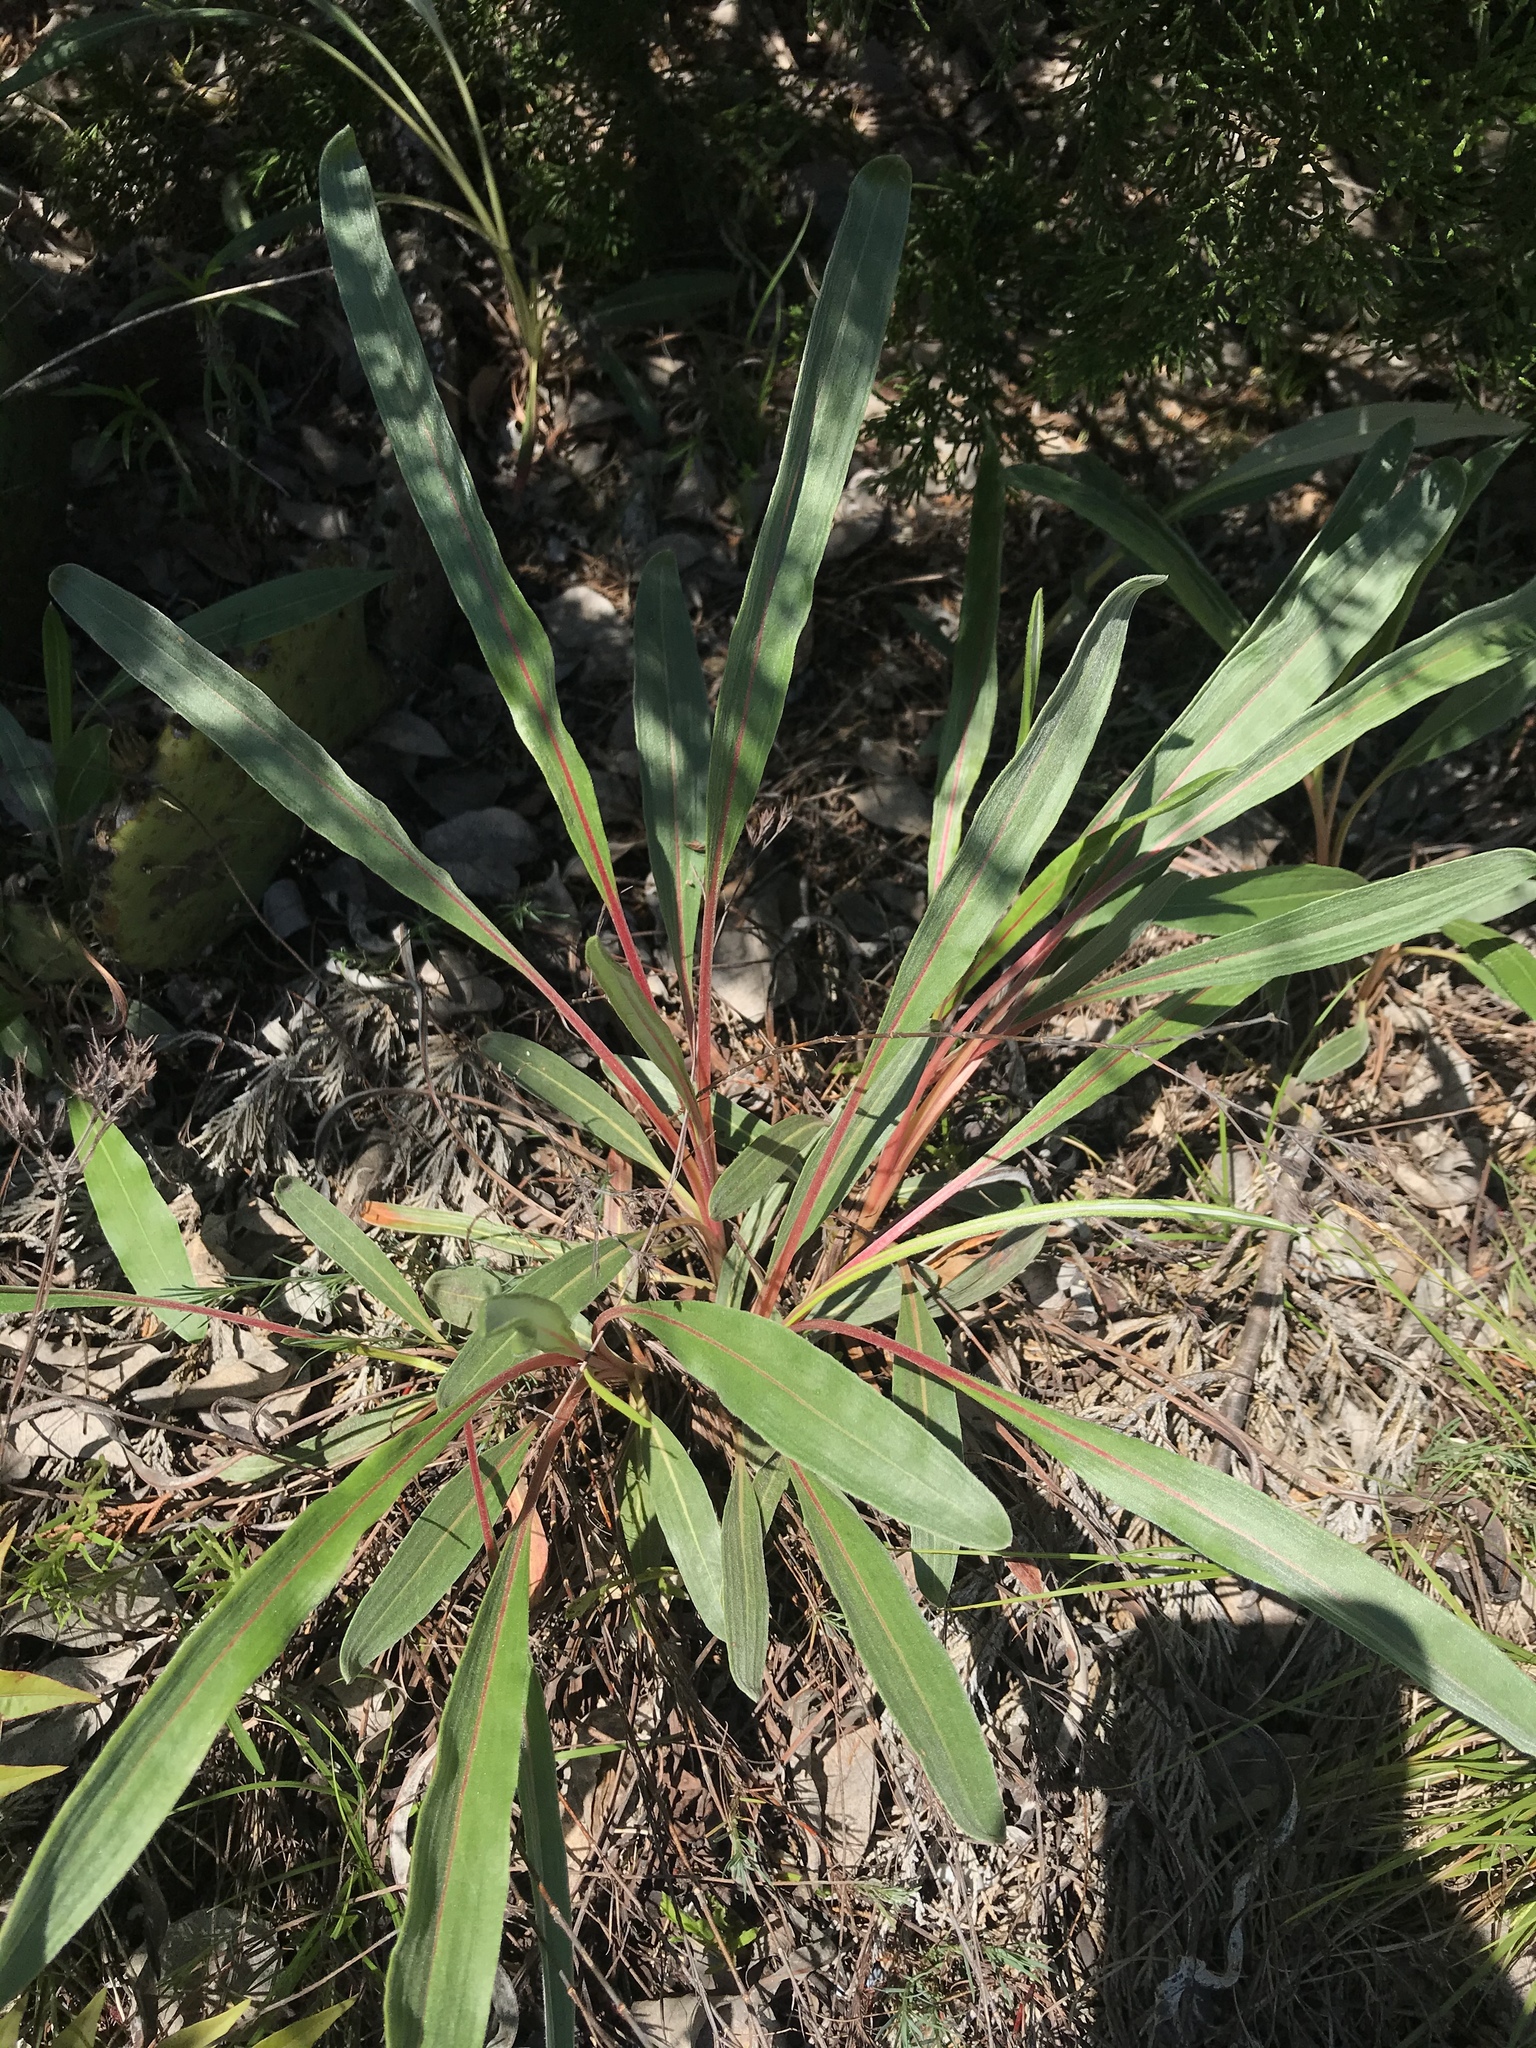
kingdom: Plantae
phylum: Tracheophyta
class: Magnoliopsida
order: Caryophyllales
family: Polygonaceae
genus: Eriogonum
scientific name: Eriogonum longifolium
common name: Longleaf wild buckwheat
